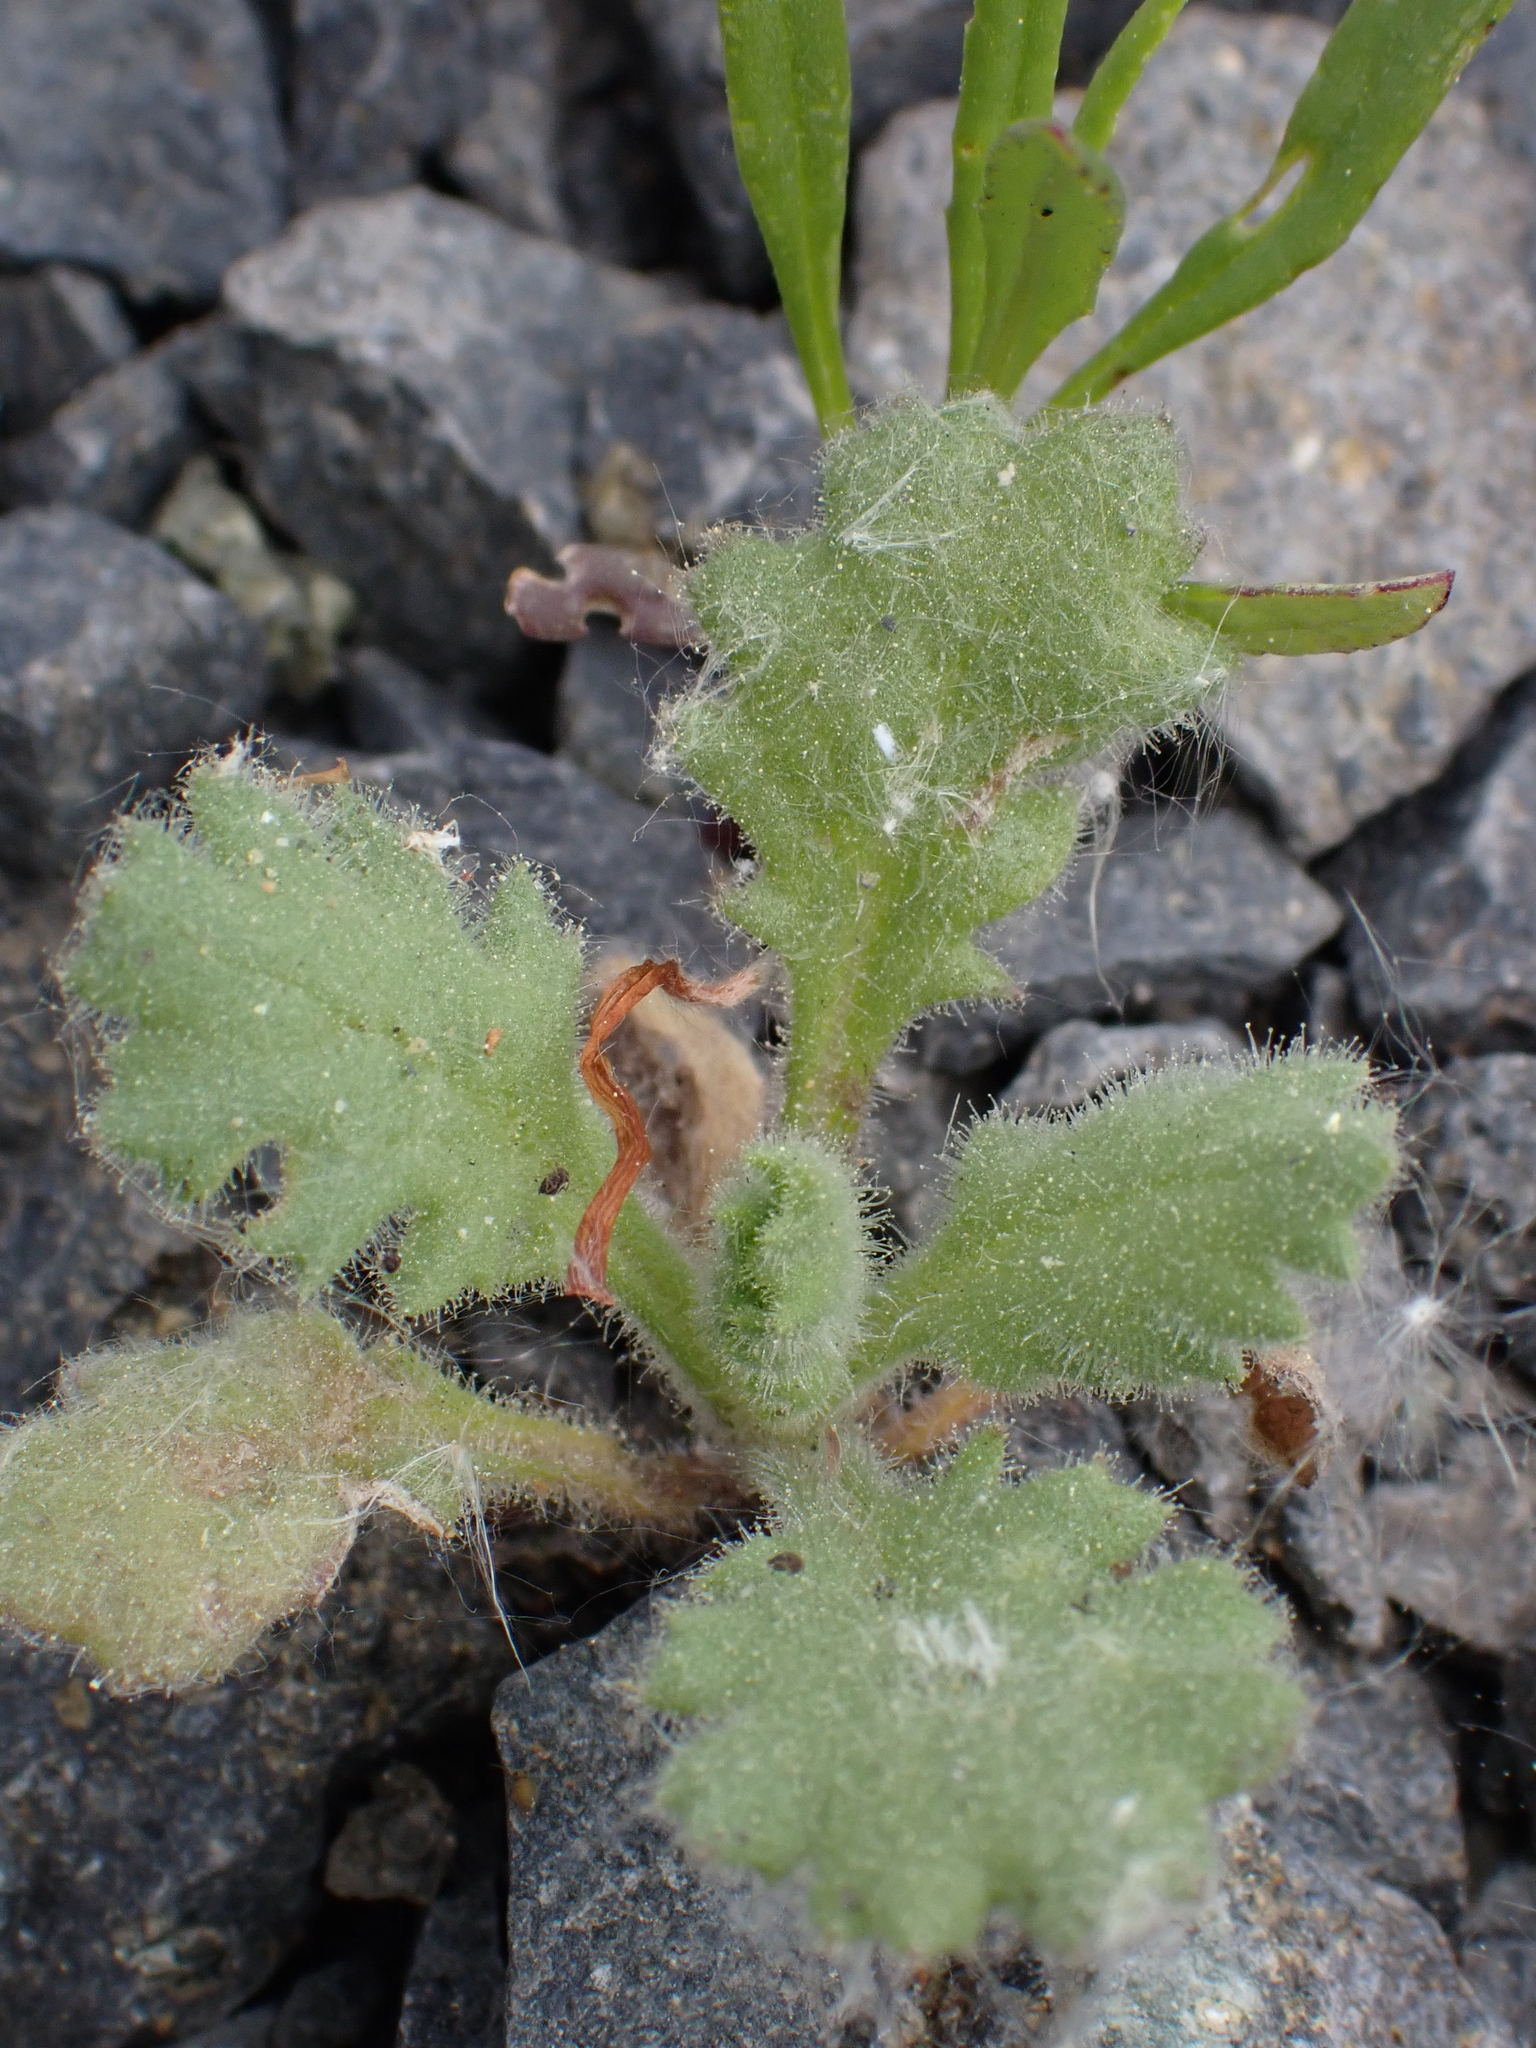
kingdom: Plantae
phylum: Tracheophyta
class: Magnoliopsida
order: Asterales
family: Asteraceae
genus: Senecio
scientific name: Senecio viscosus
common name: Sticky groundsel
